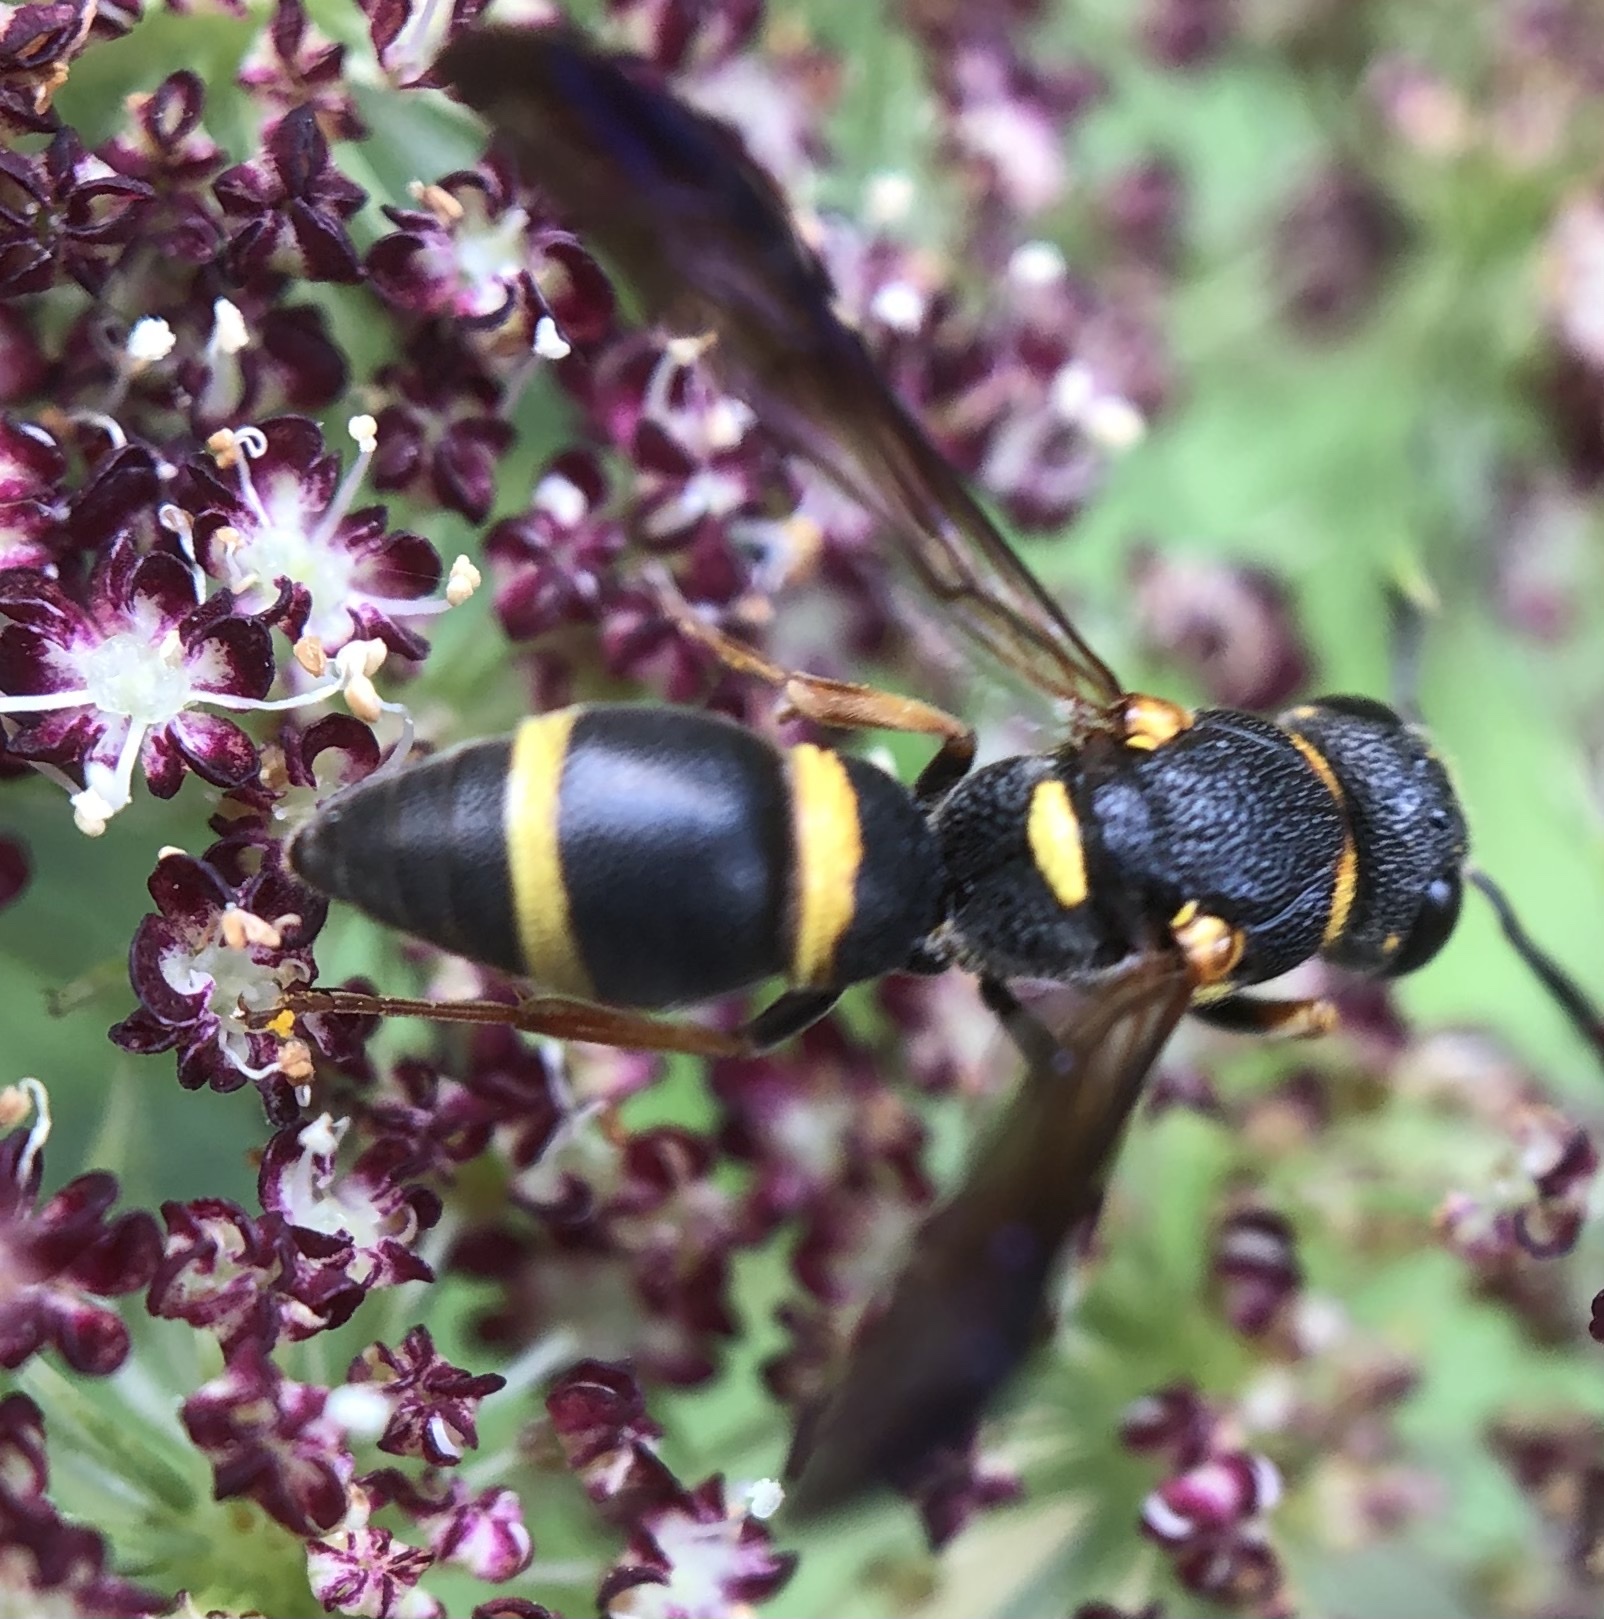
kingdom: Animalia
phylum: Arthropoda
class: Insecta
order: Hymenoptera
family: Eumenidae
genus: Parancistrocerus
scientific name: Parancistrocerus perennis
